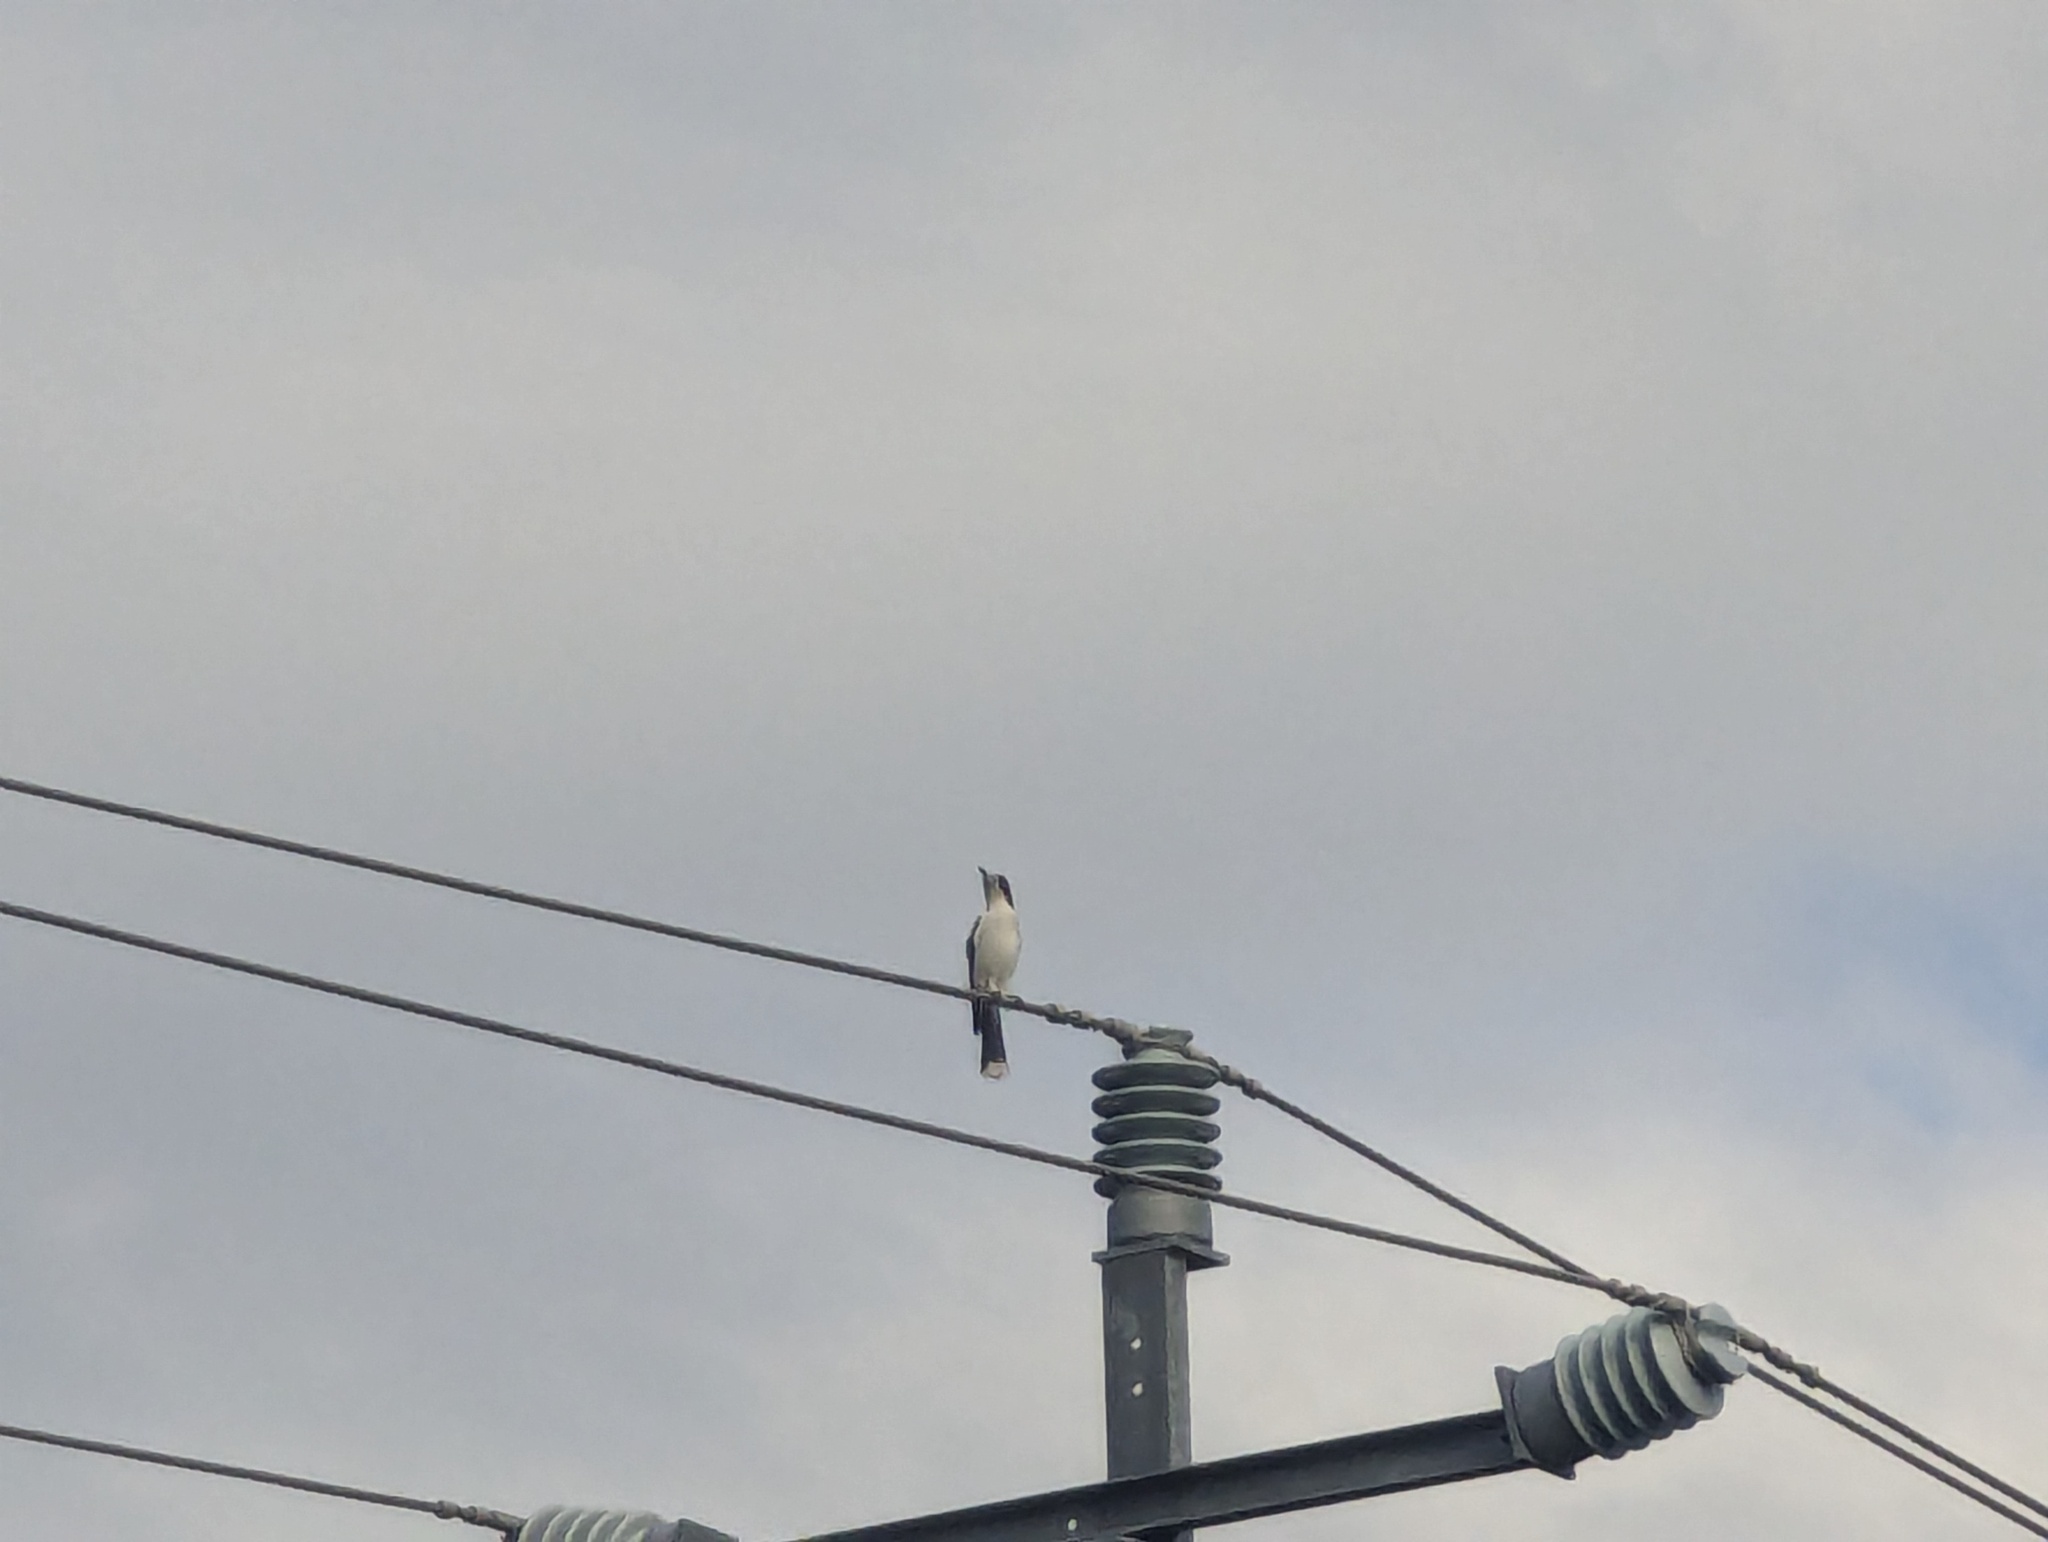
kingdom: Animalia
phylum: Chordata
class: Aves
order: Passeriformes
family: Cracticidae
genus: Cracticus
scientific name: Cracticus torquatus
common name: Grey butcherbird
